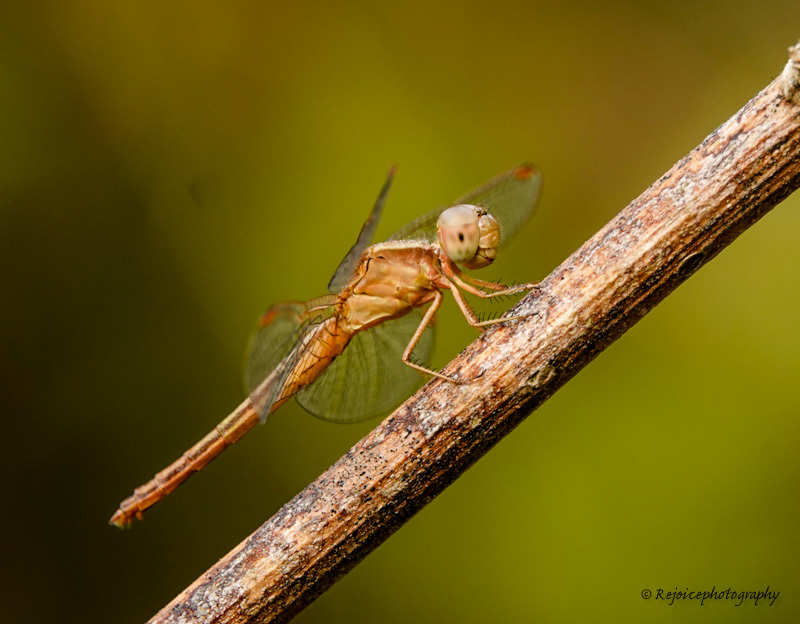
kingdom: Animalia
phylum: Arthropoda
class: Insecta
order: Odonata
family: Libellulidae
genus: Neurothemis
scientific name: Neurothemis intermedia
